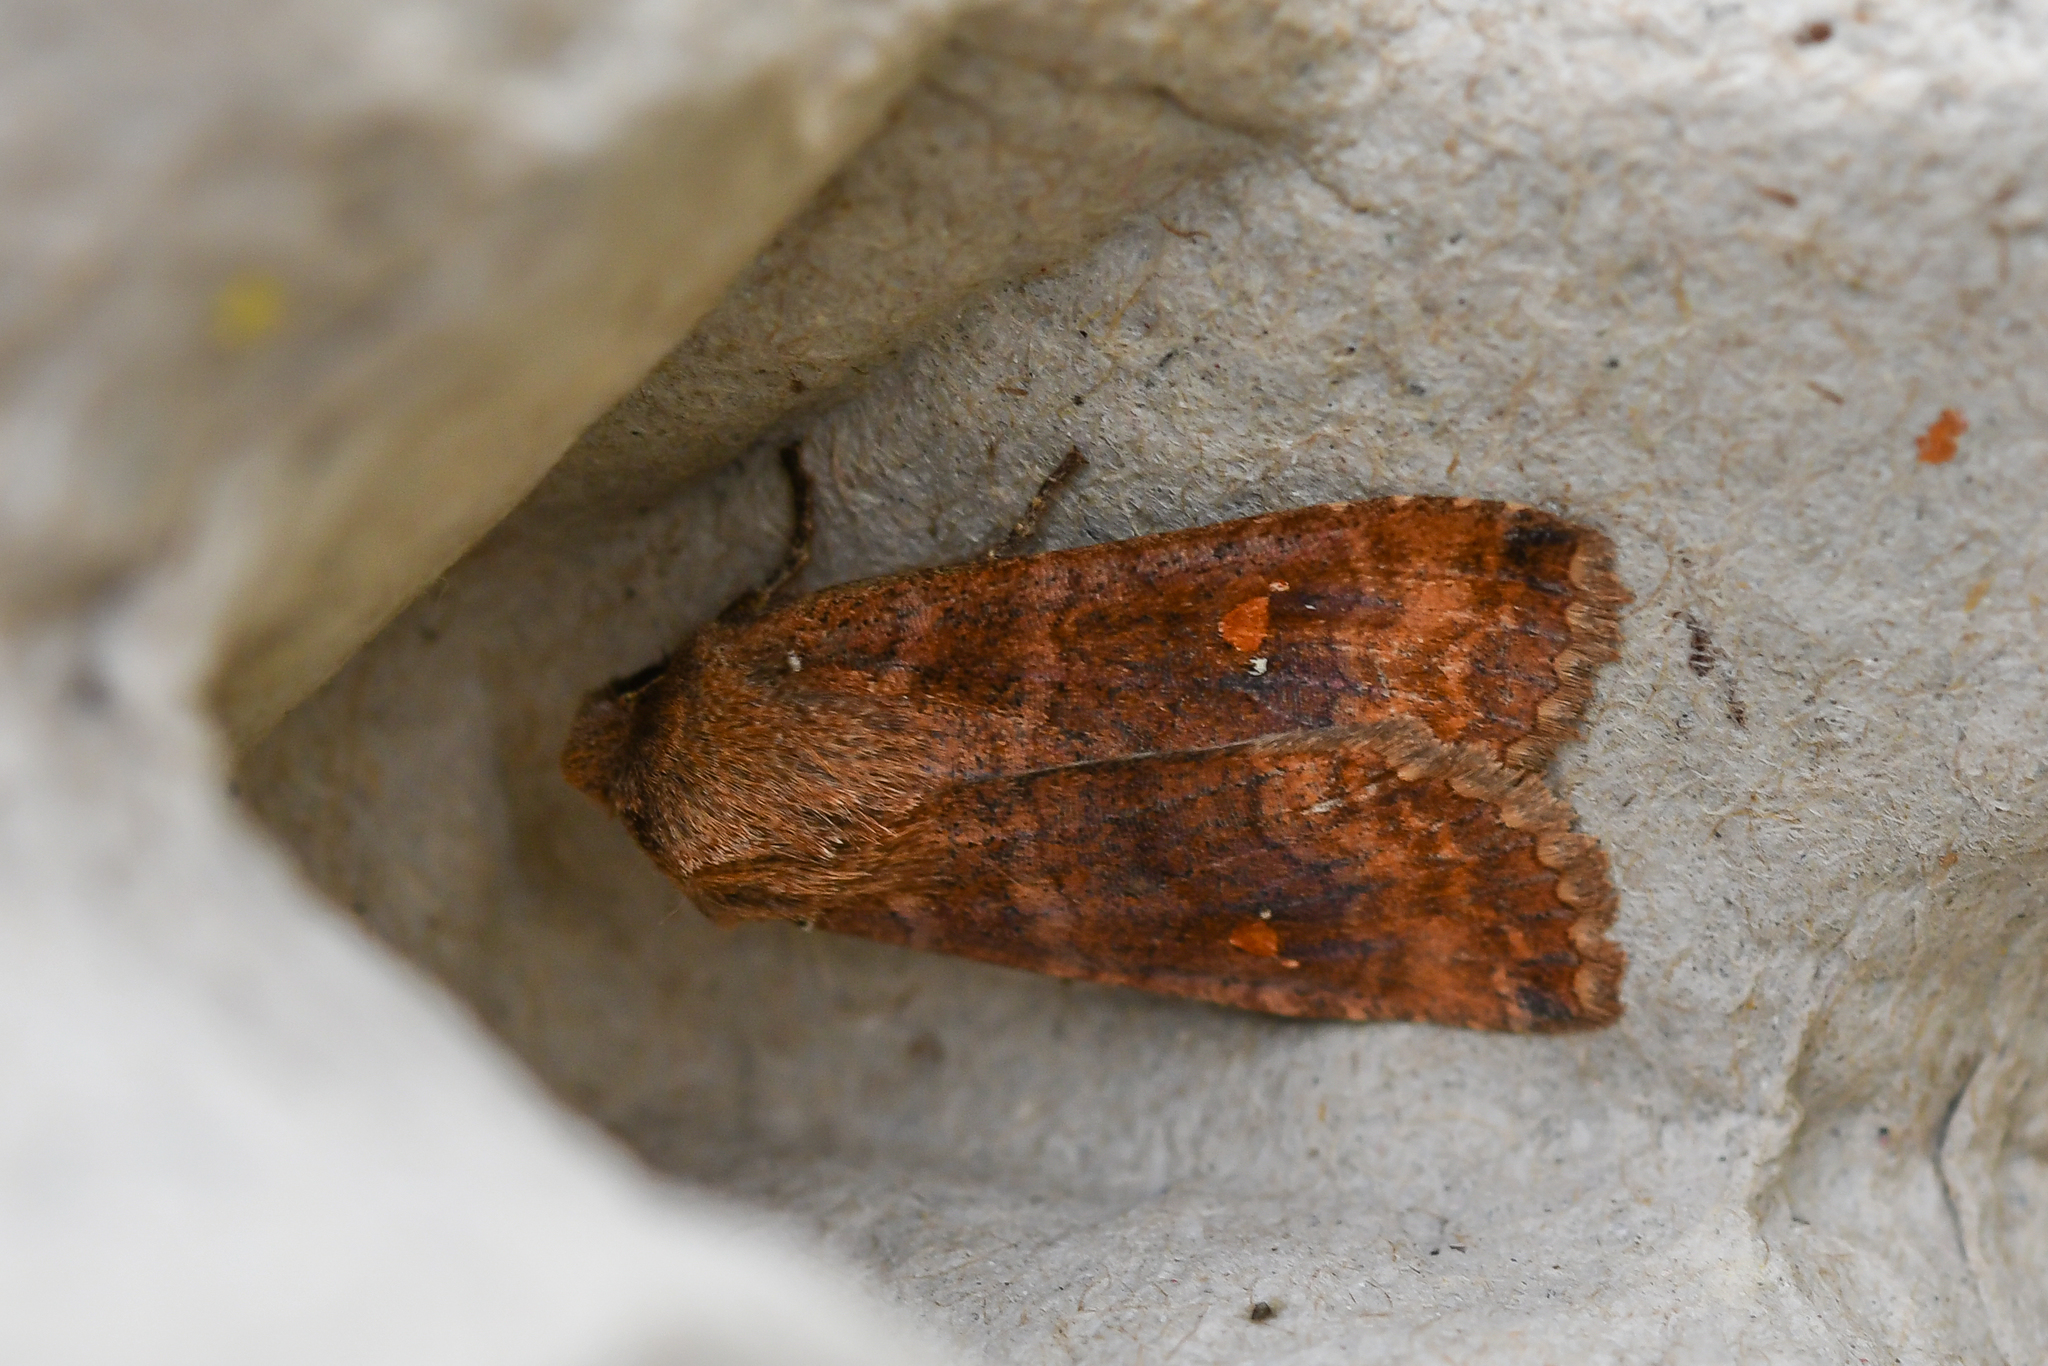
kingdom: Animalia
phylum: Arthropoda
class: Insecta
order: Lepidoptera
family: Noctuidae
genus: Eupsilia
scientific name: Eupsilia transversa
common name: Satellite
